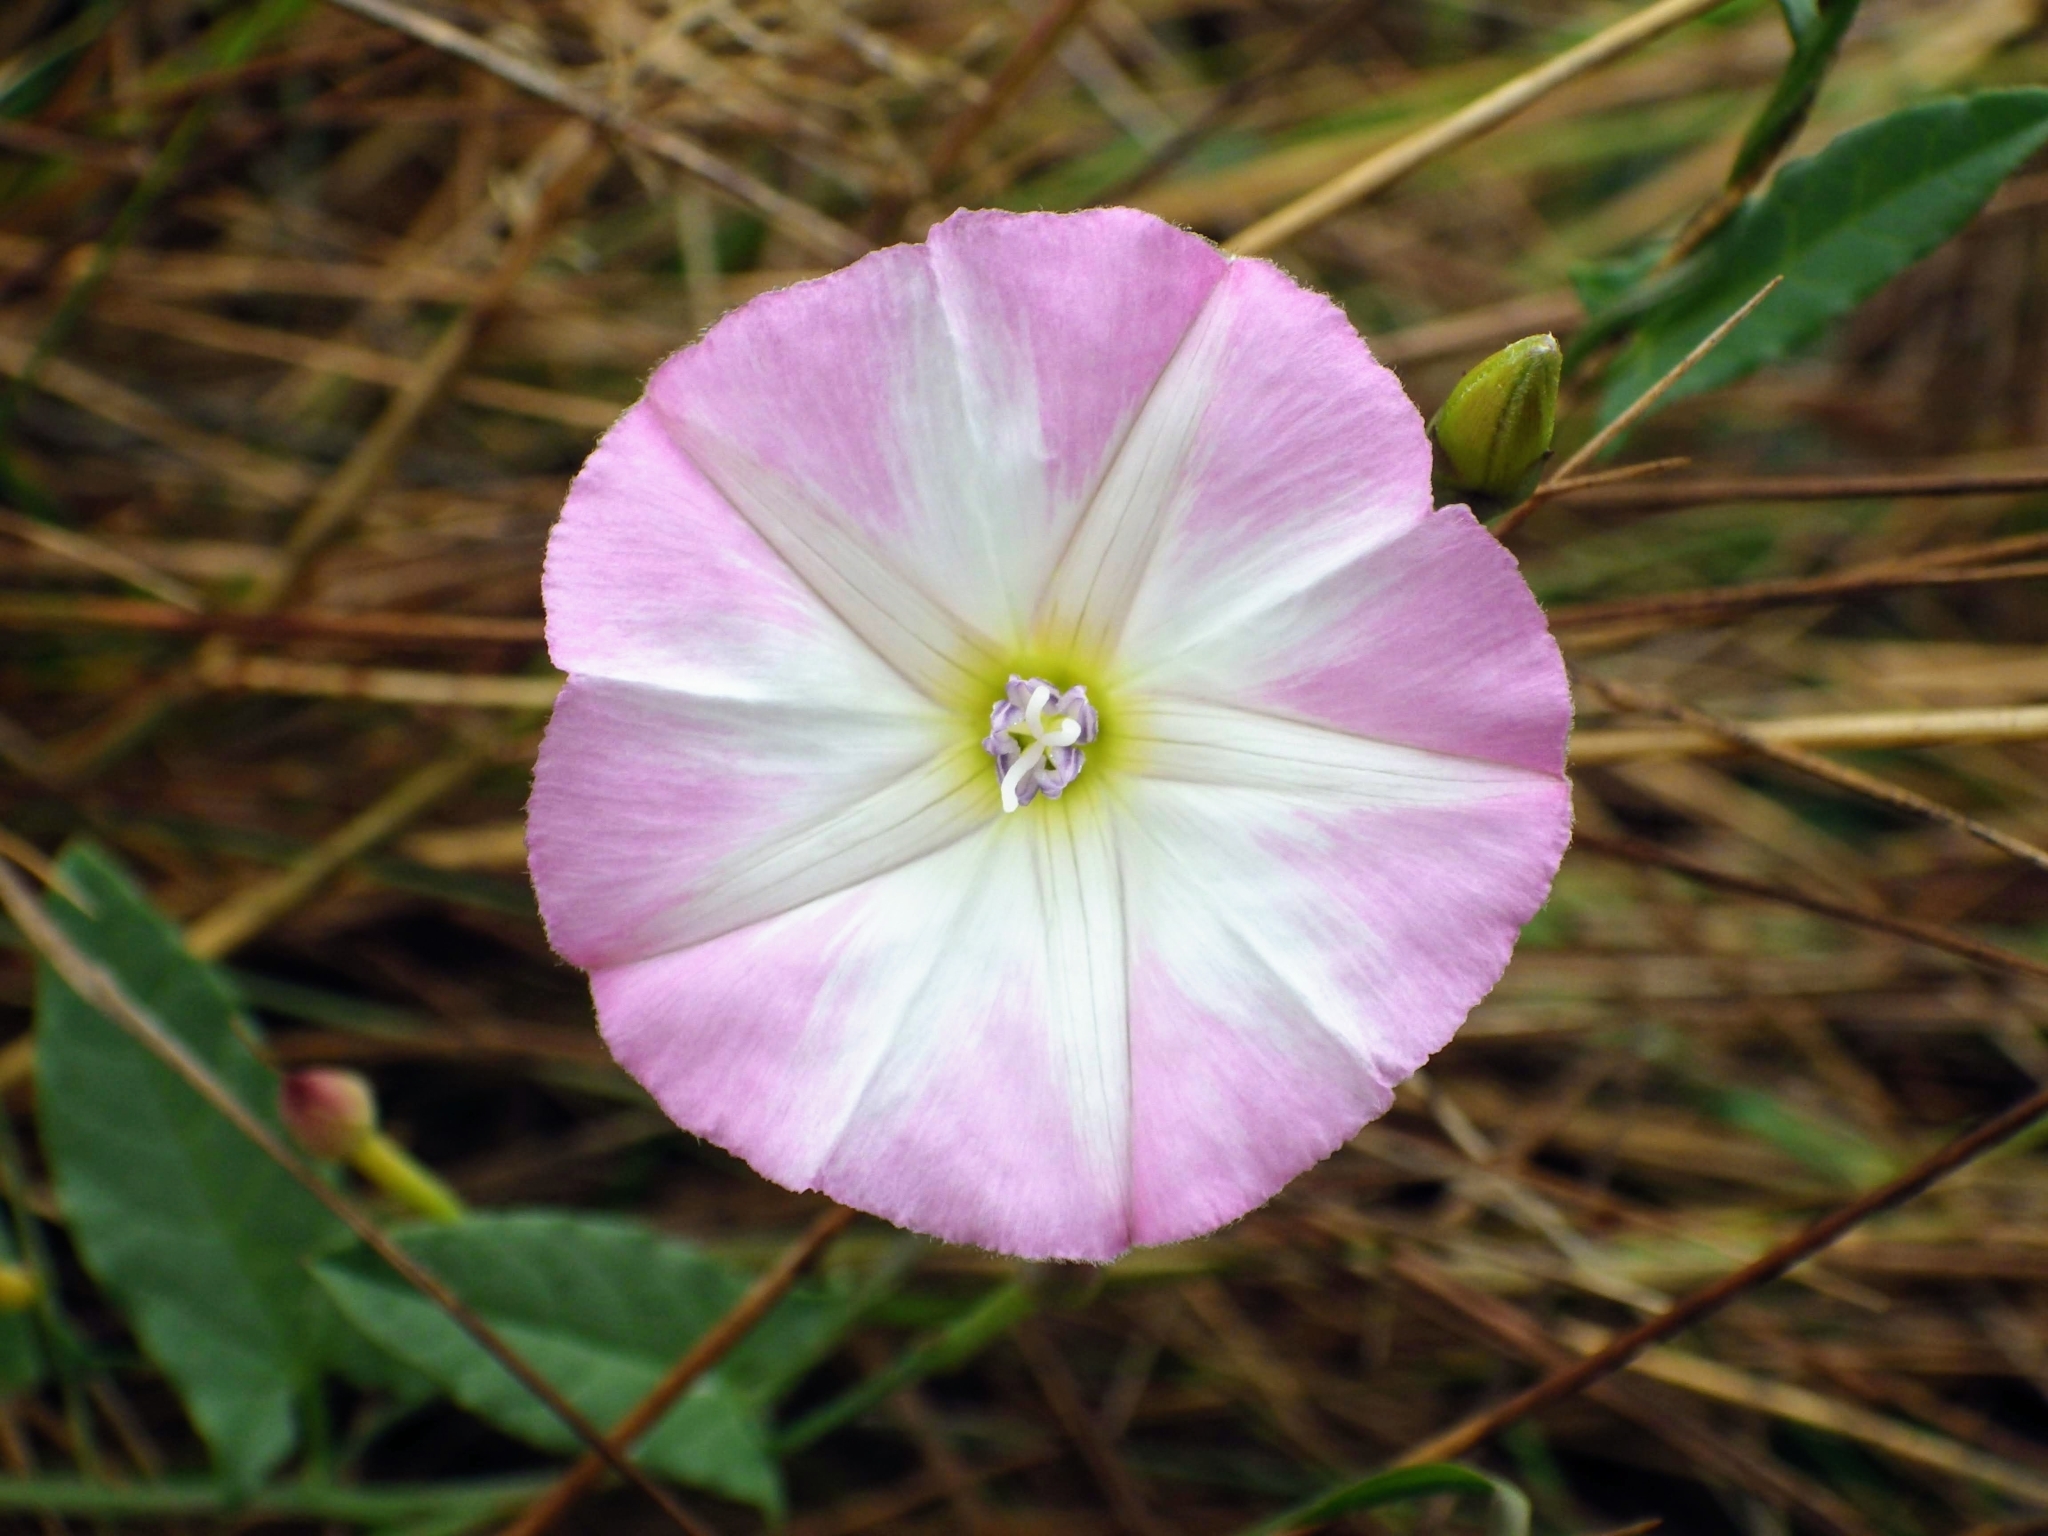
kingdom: Plantae
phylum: Tracheophyta
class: Magnoliopsida
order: Solanales
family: Convolvulaceae
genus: Convolvulus
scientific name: Convolvulus arvensis
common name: Field bindweed
